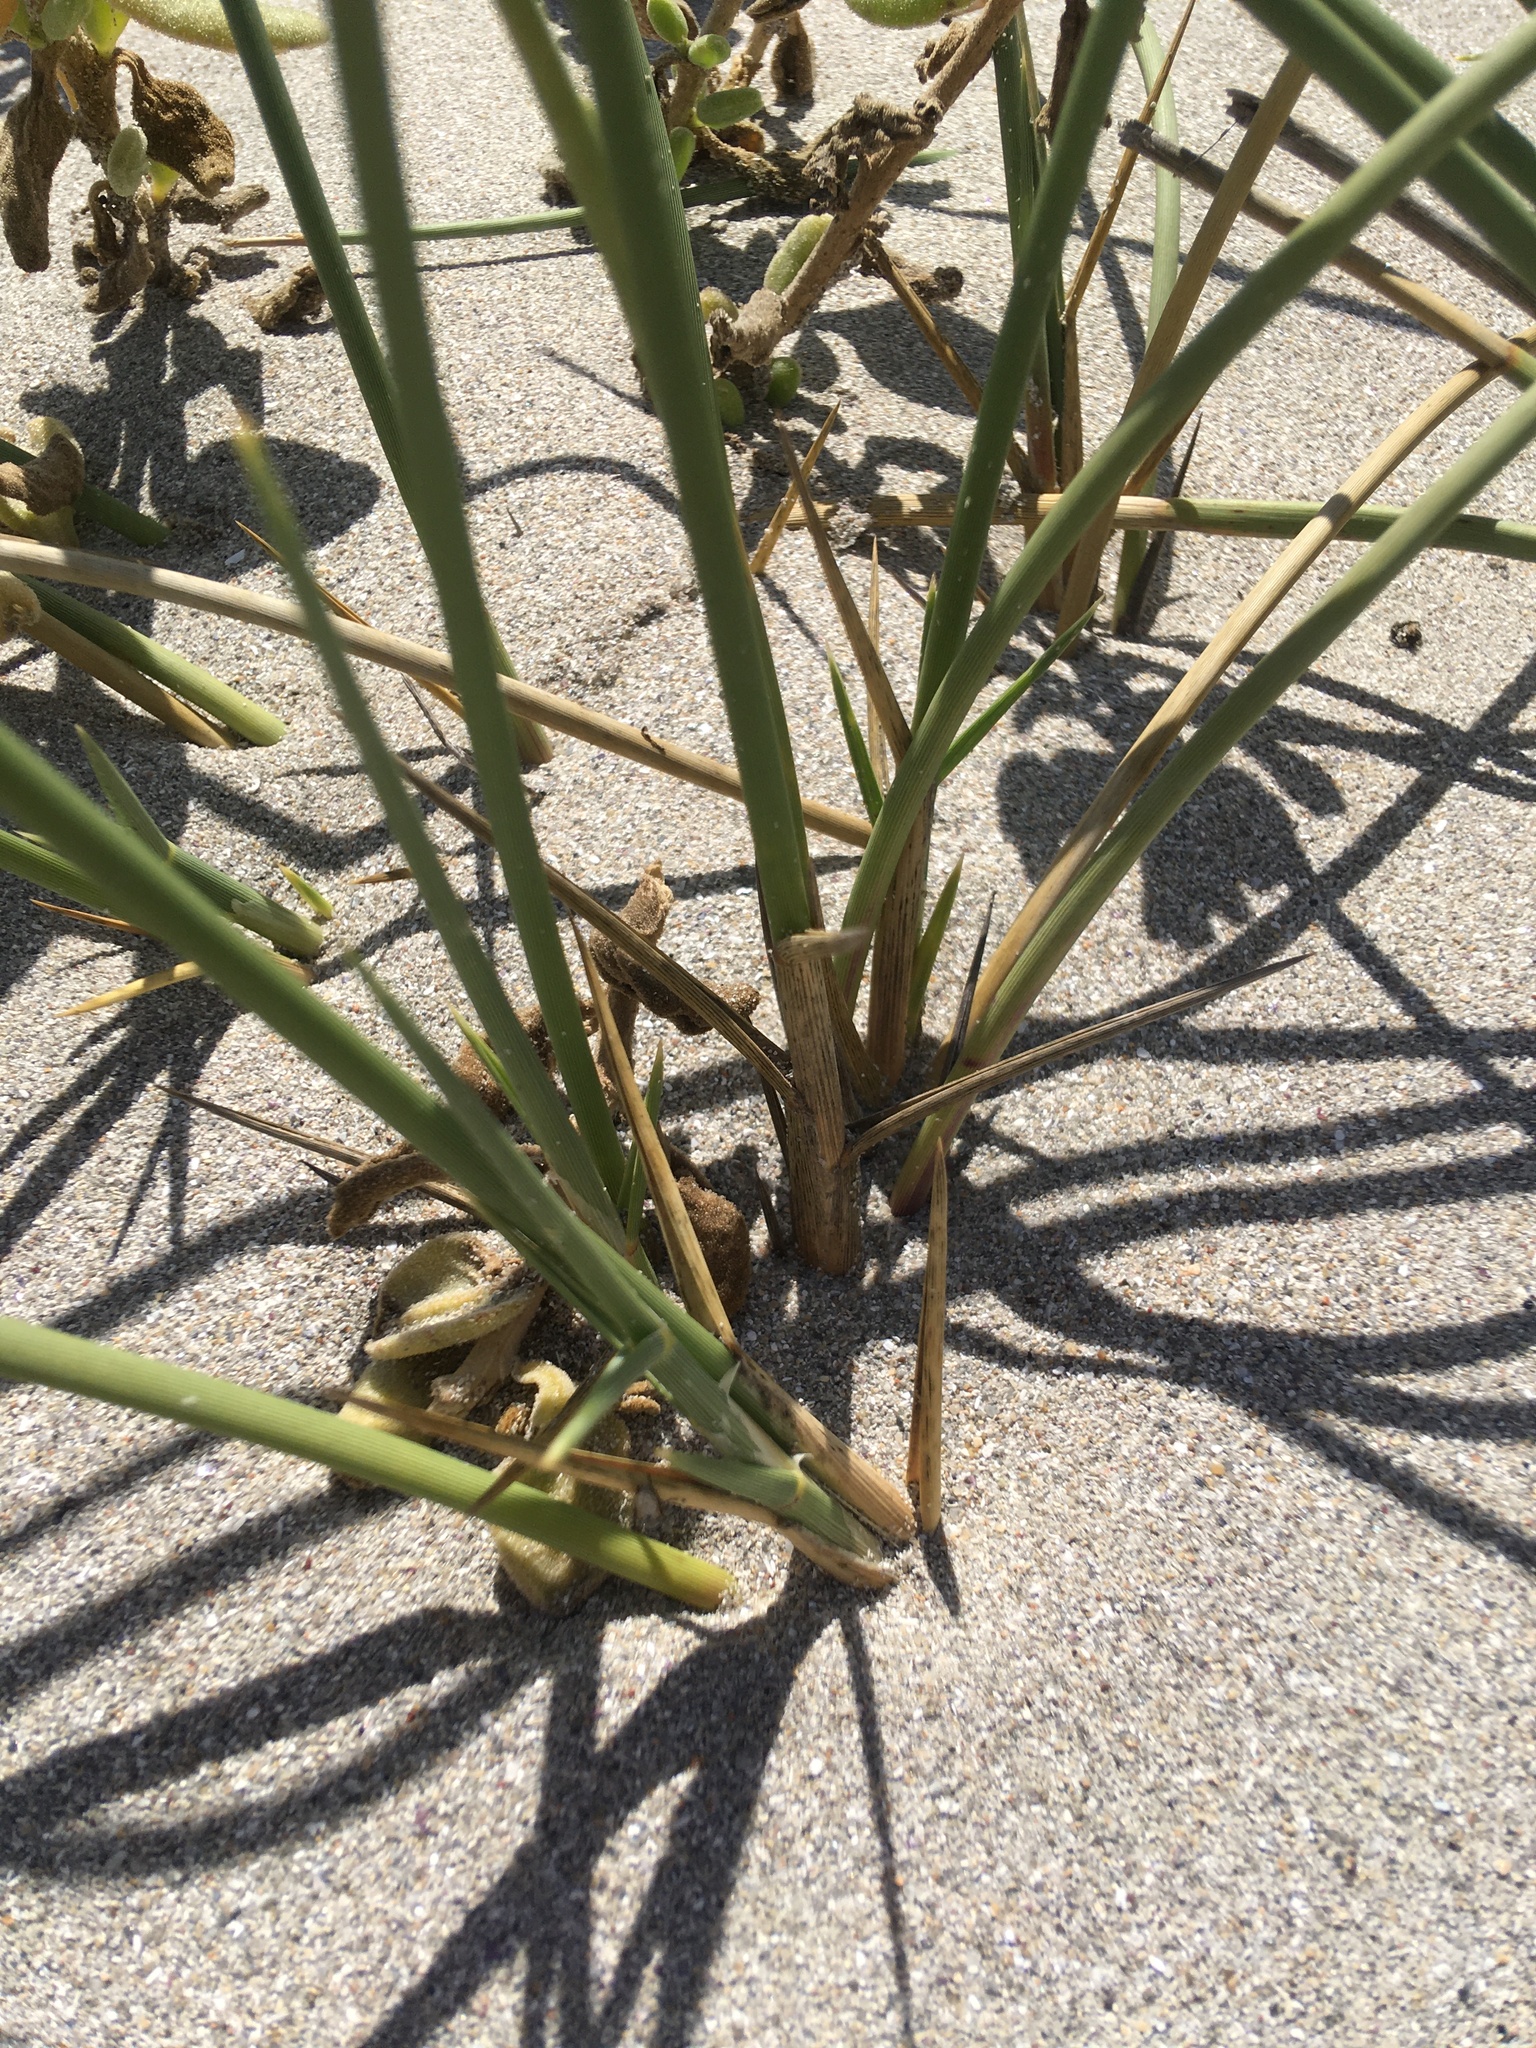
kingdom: Plantae
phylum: Tracheophyta
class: Liliopsida
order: Poales
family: Poaceae
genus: Cladoraphis
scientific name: Cladoraphis cyperoides
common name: Bristly lovegrass
